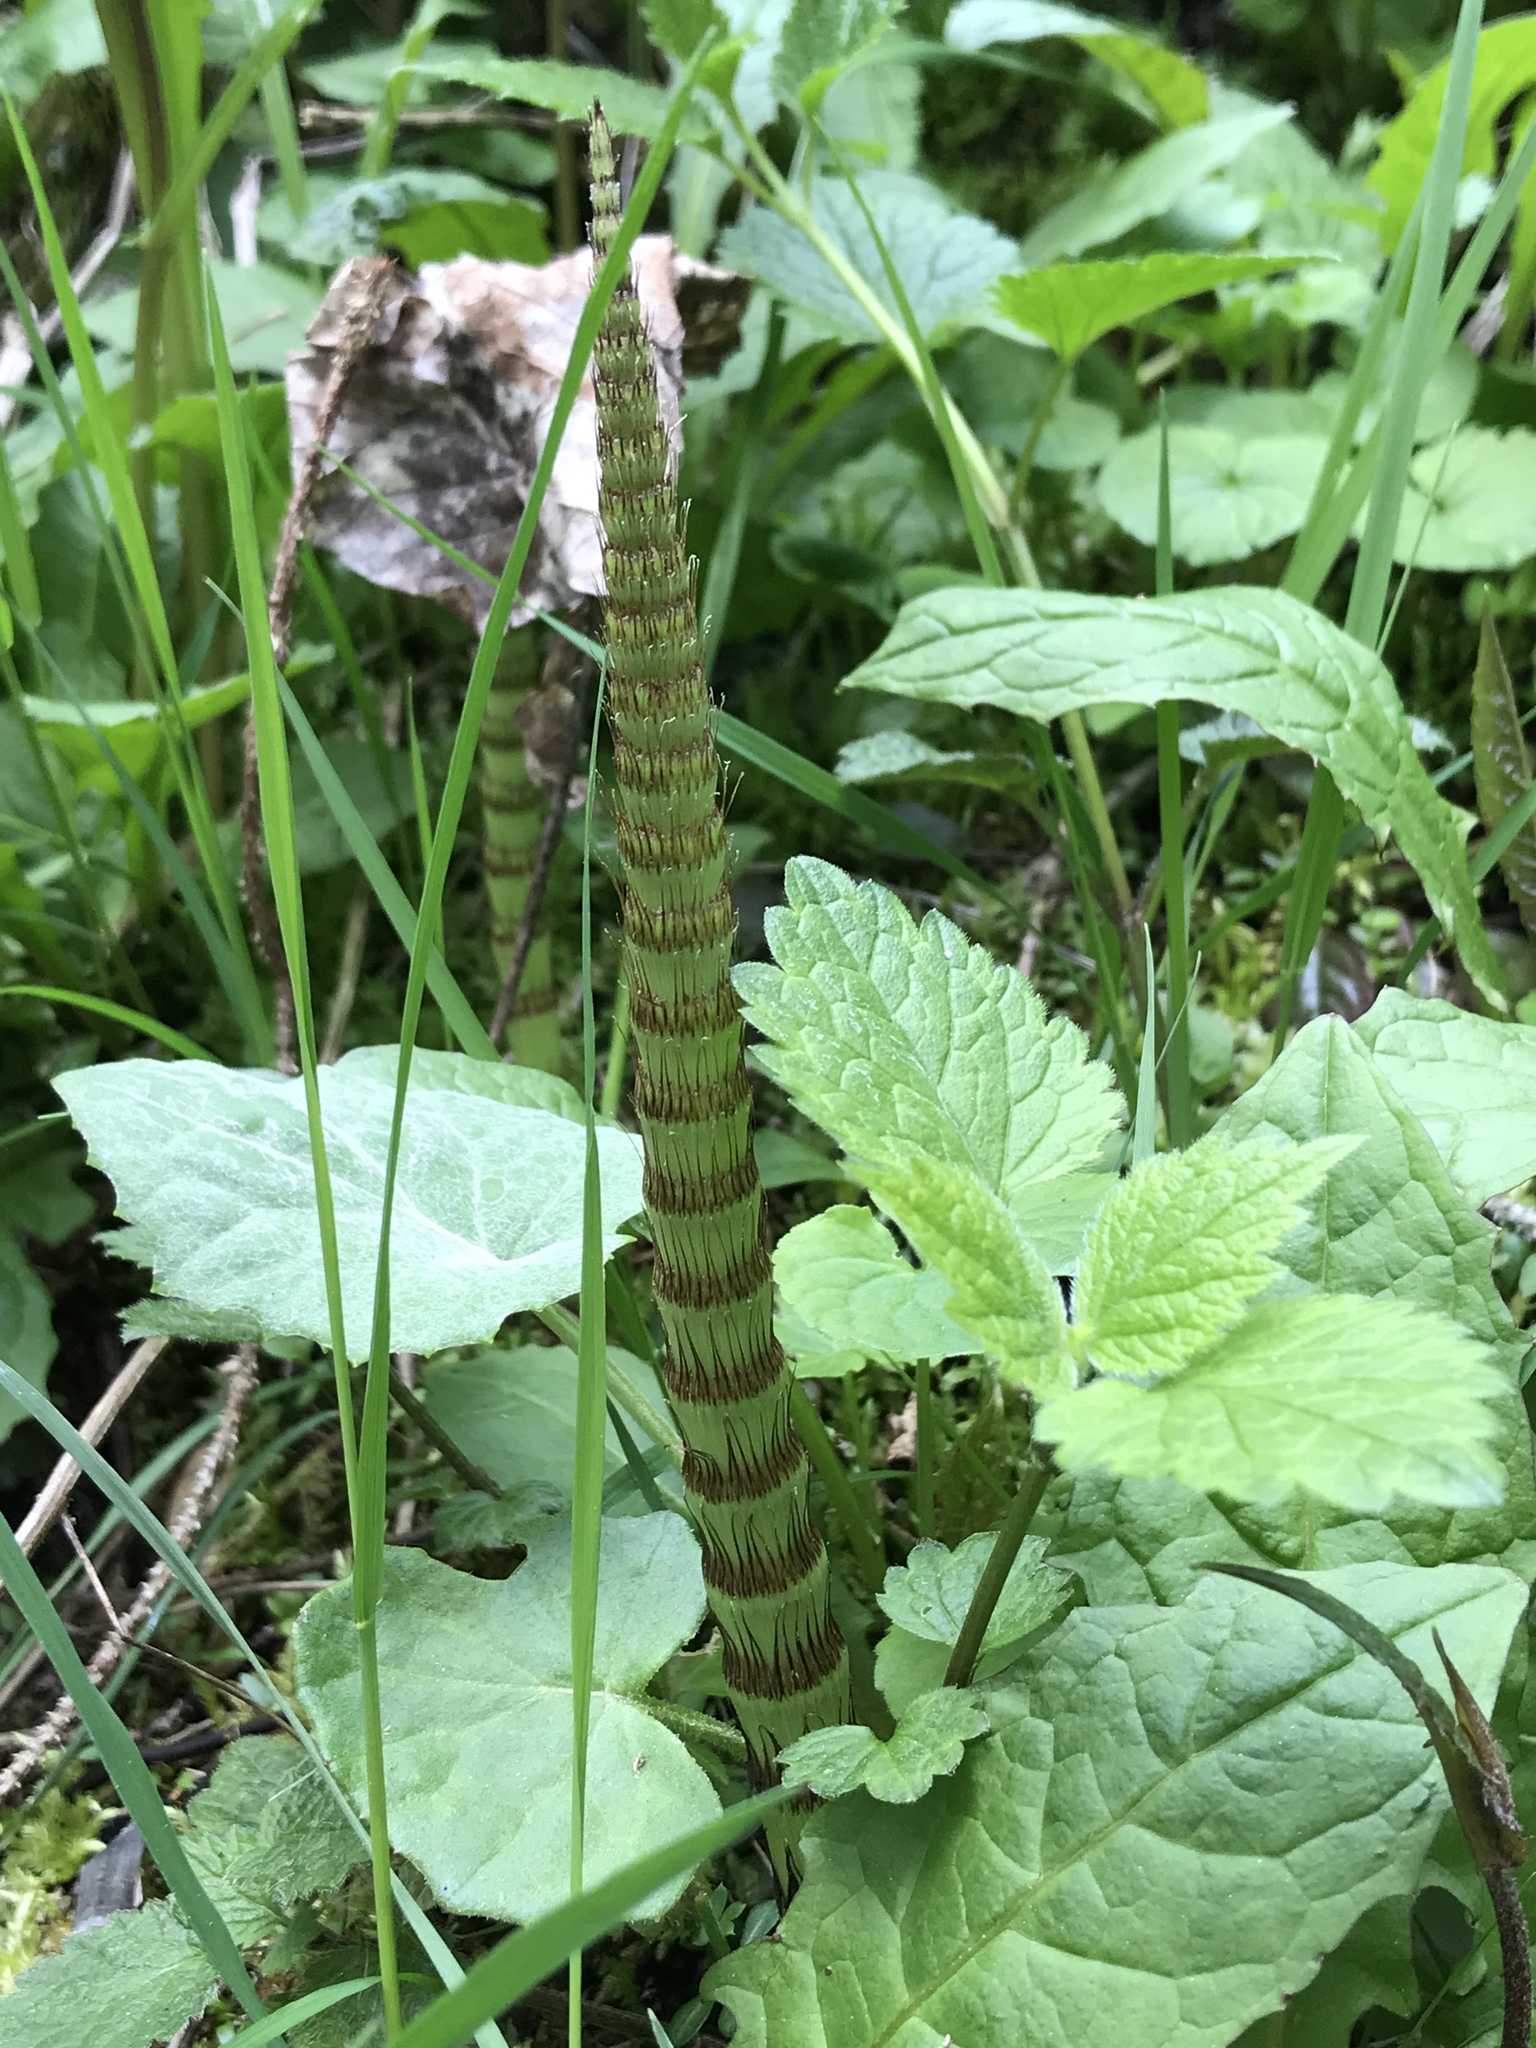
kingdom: Plantae
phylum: Tracheophyta
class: Polypodiopsida
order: Equisetales
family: Equisetaceae
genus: Equisetum
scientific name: Equisetum telmateia
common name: Great horsetail
